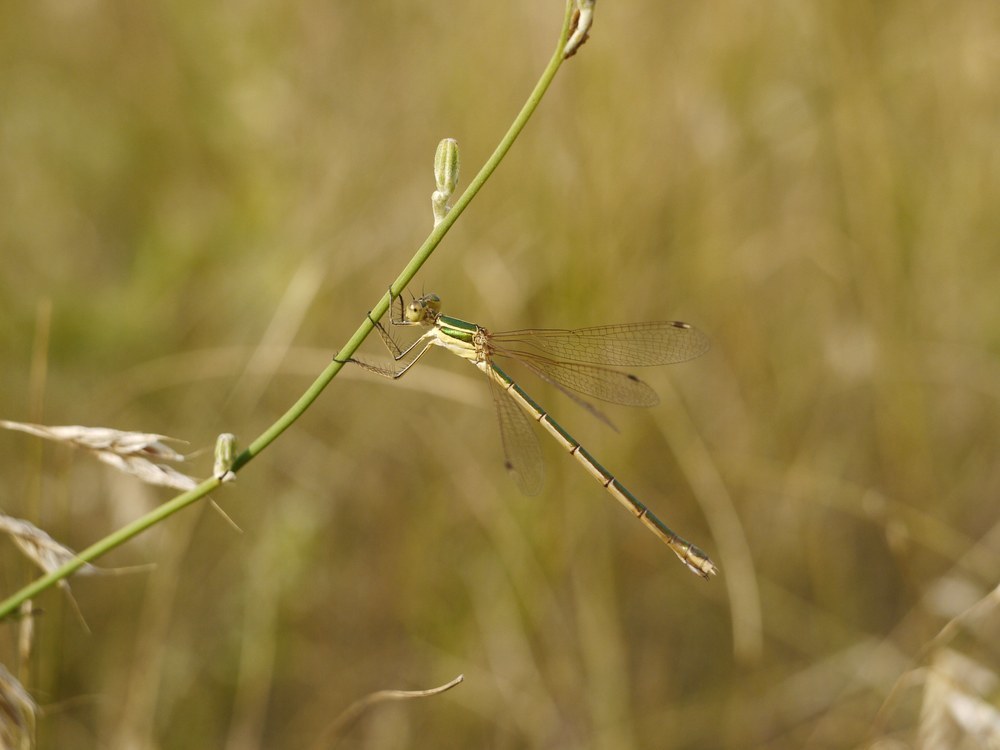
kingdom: Animalia
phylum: Arthropoda
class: Insecta
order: Odonata
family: Lestidae
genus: Lestes
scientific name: Lestes barbarus
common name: Migrant spreadwing
